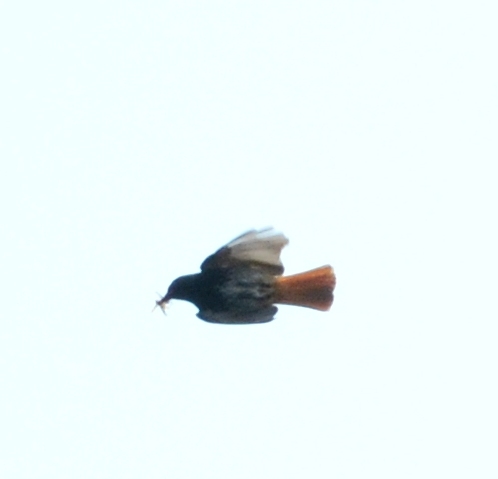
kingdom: Animalia
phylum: Chordata
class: Aves
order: Passeriformes
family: Muscicapidae
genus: Phoenicurus
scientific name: Phoenicurus ochruros
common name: Black redstart
